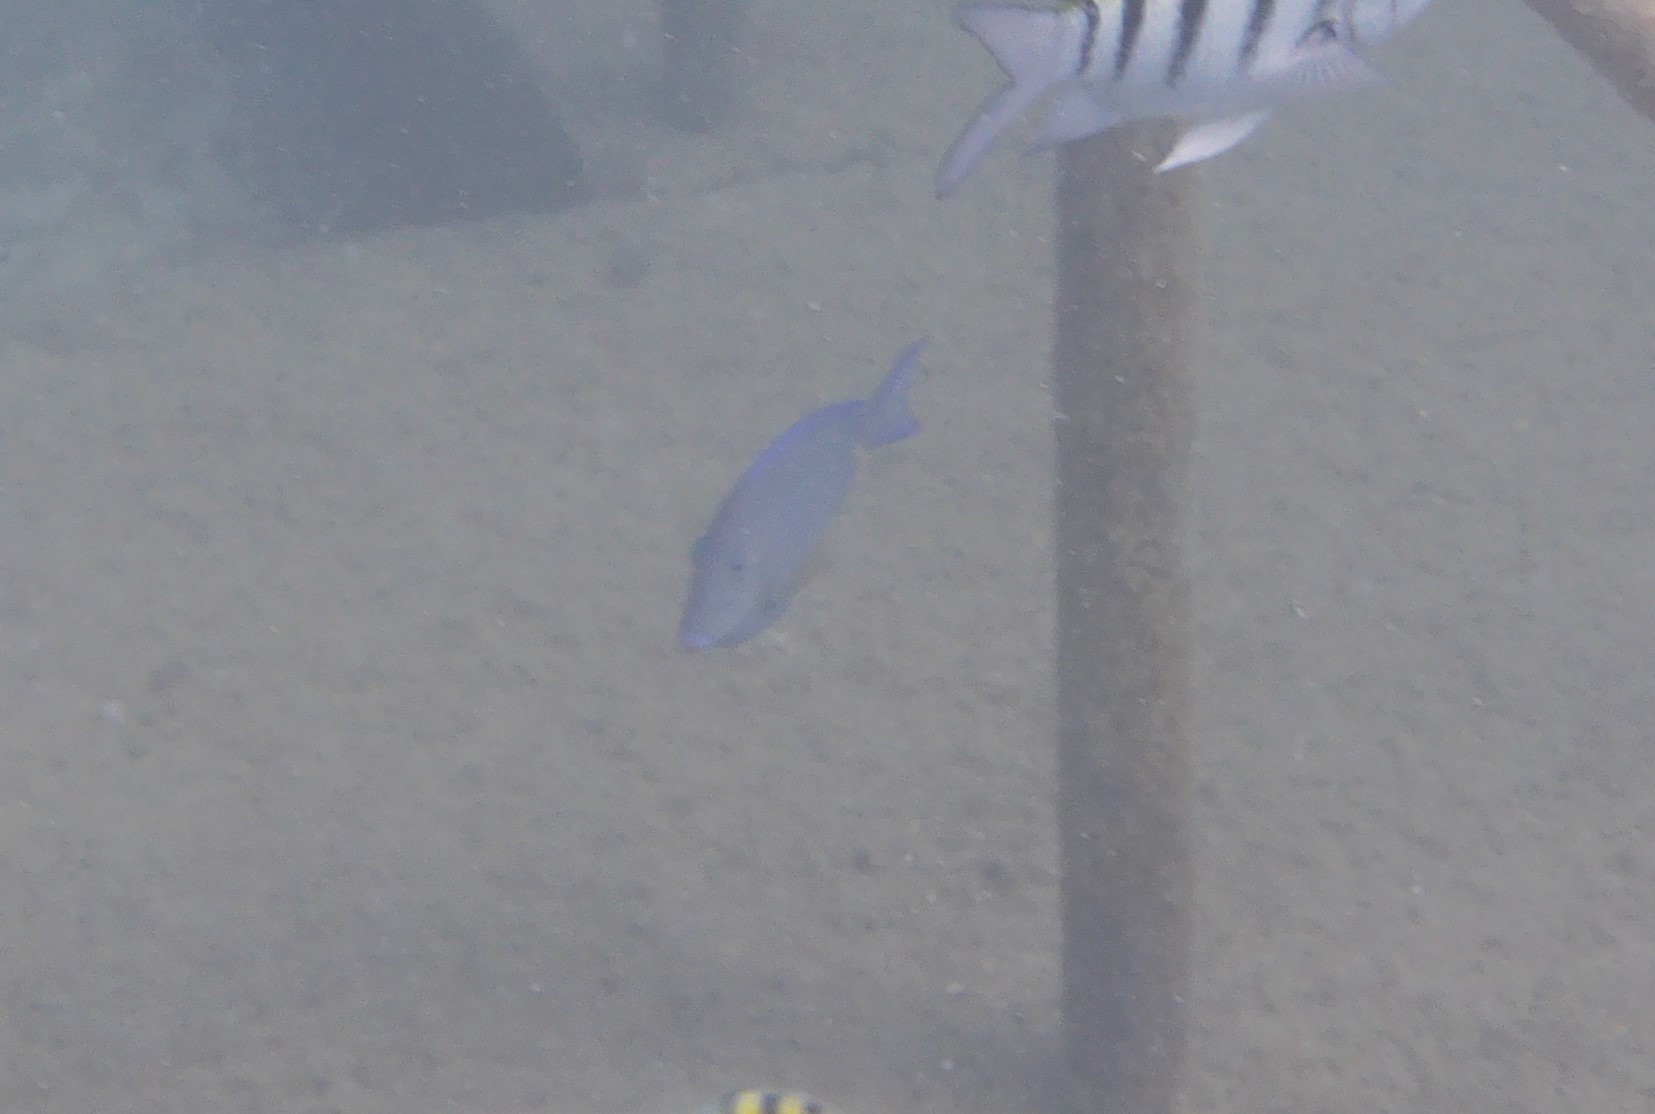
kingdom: Animalia
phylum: Chordata
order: Perciformes
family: Acanthuridae
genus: Acanthurus
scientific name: Acanthurus coeruleus
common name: Blue tang
